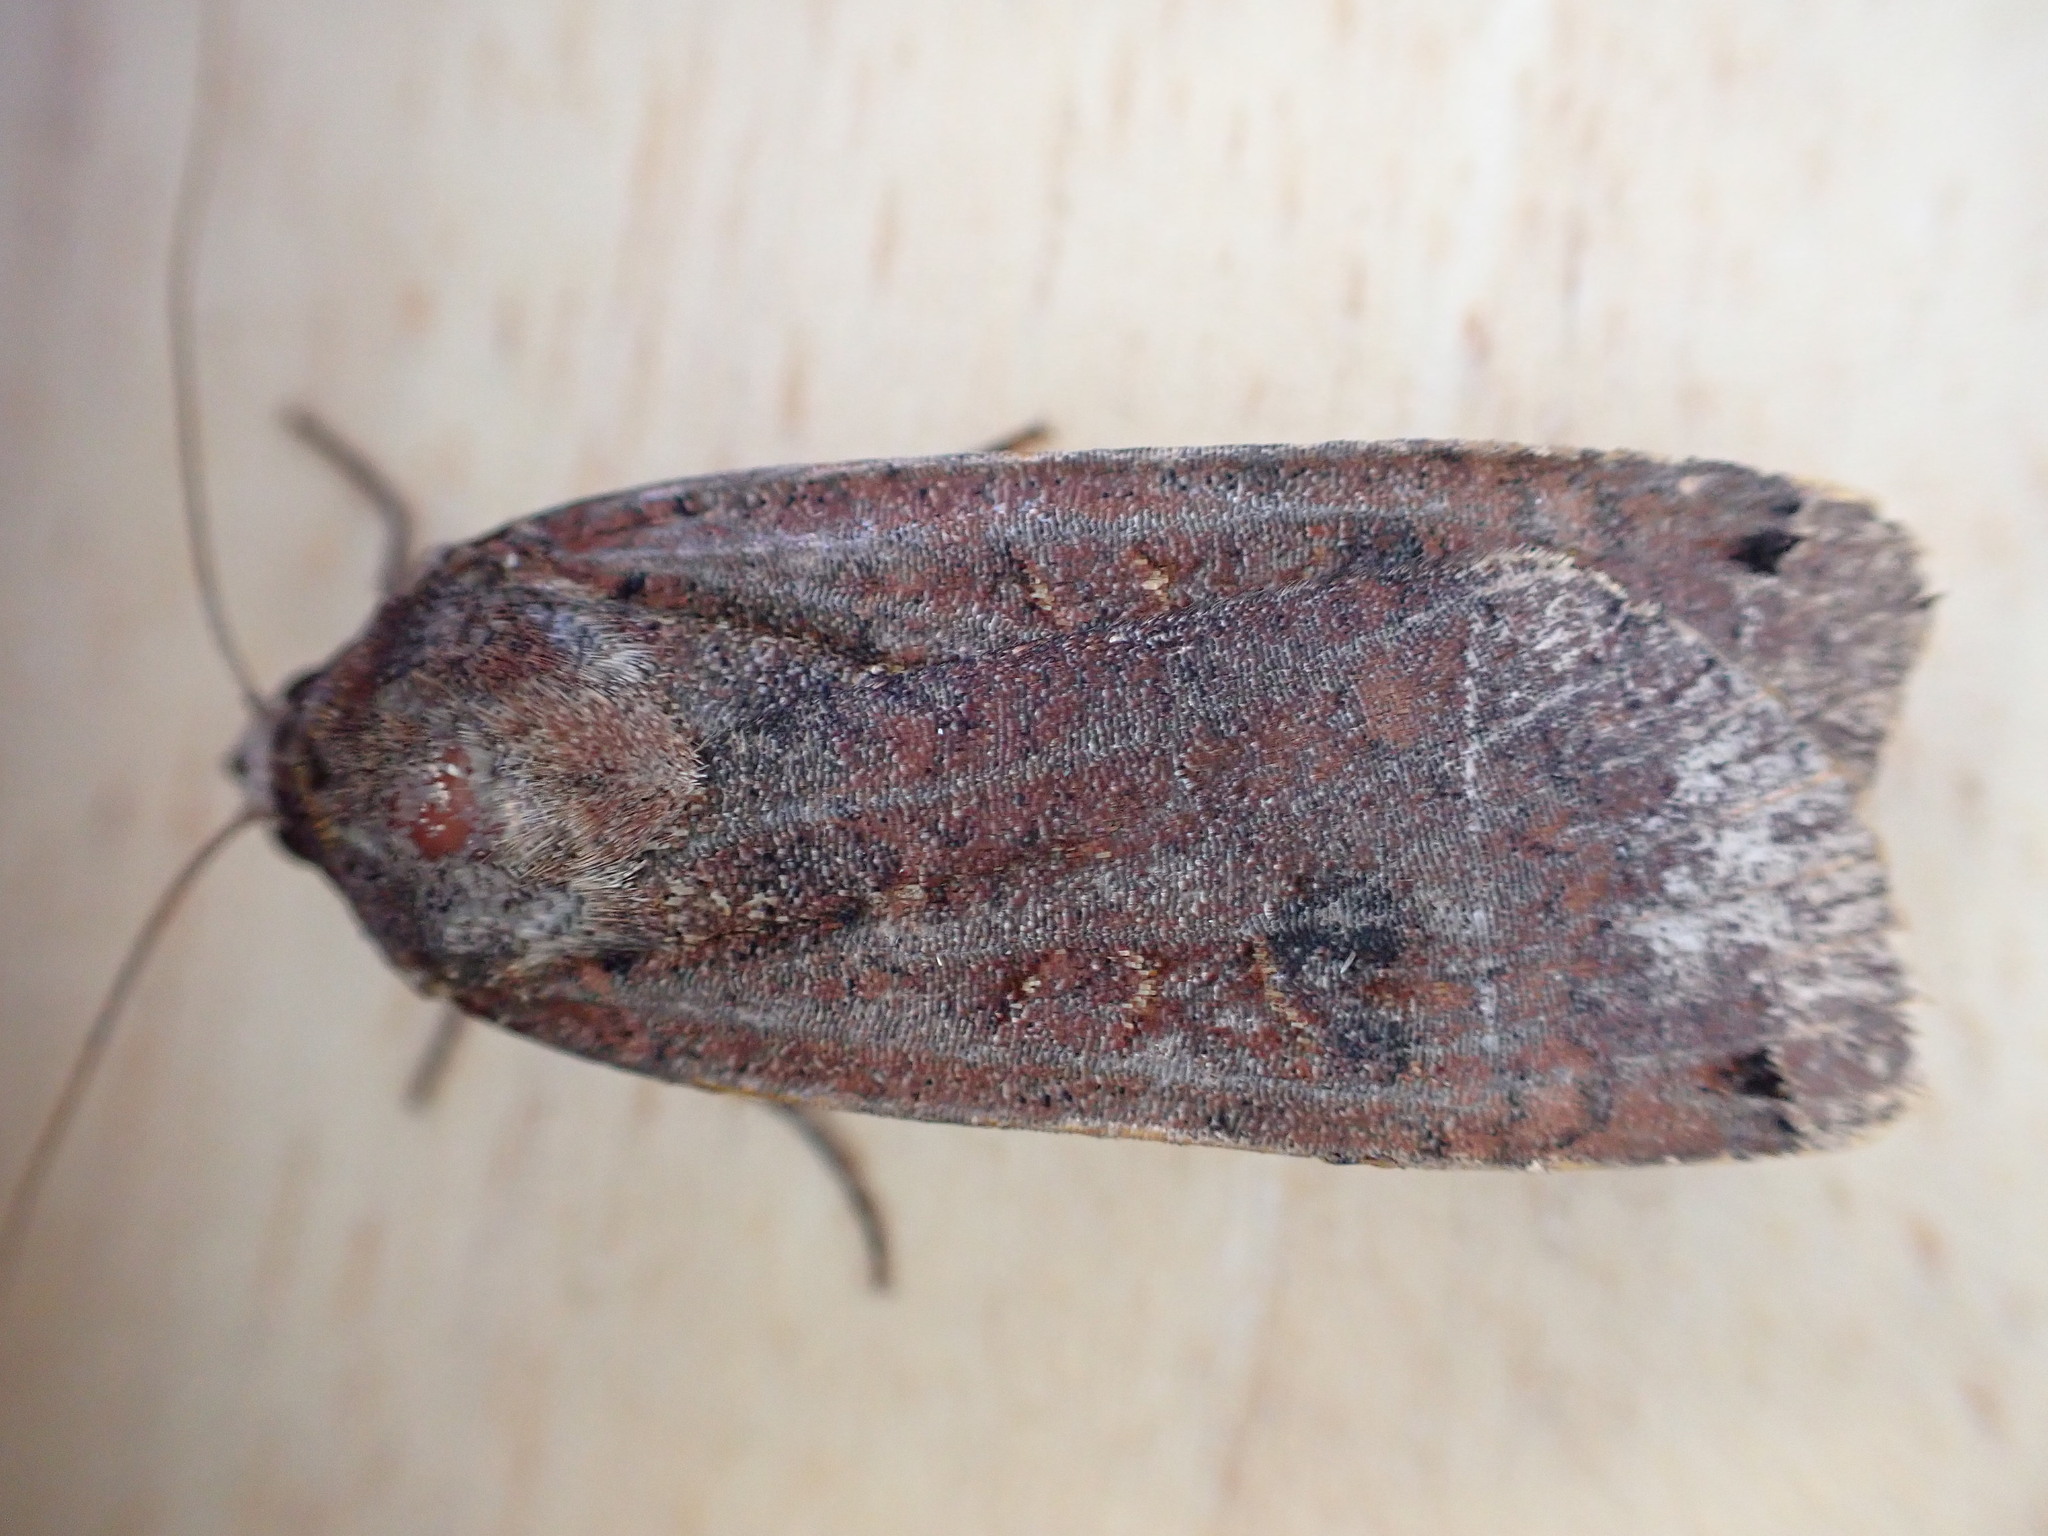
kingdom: Animalia
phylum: Arthropoda
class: Insecta
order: Lepidoptera
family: Noctuidae
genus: Noctua
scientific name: Noctua pronuba
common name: Large yellow underwing
